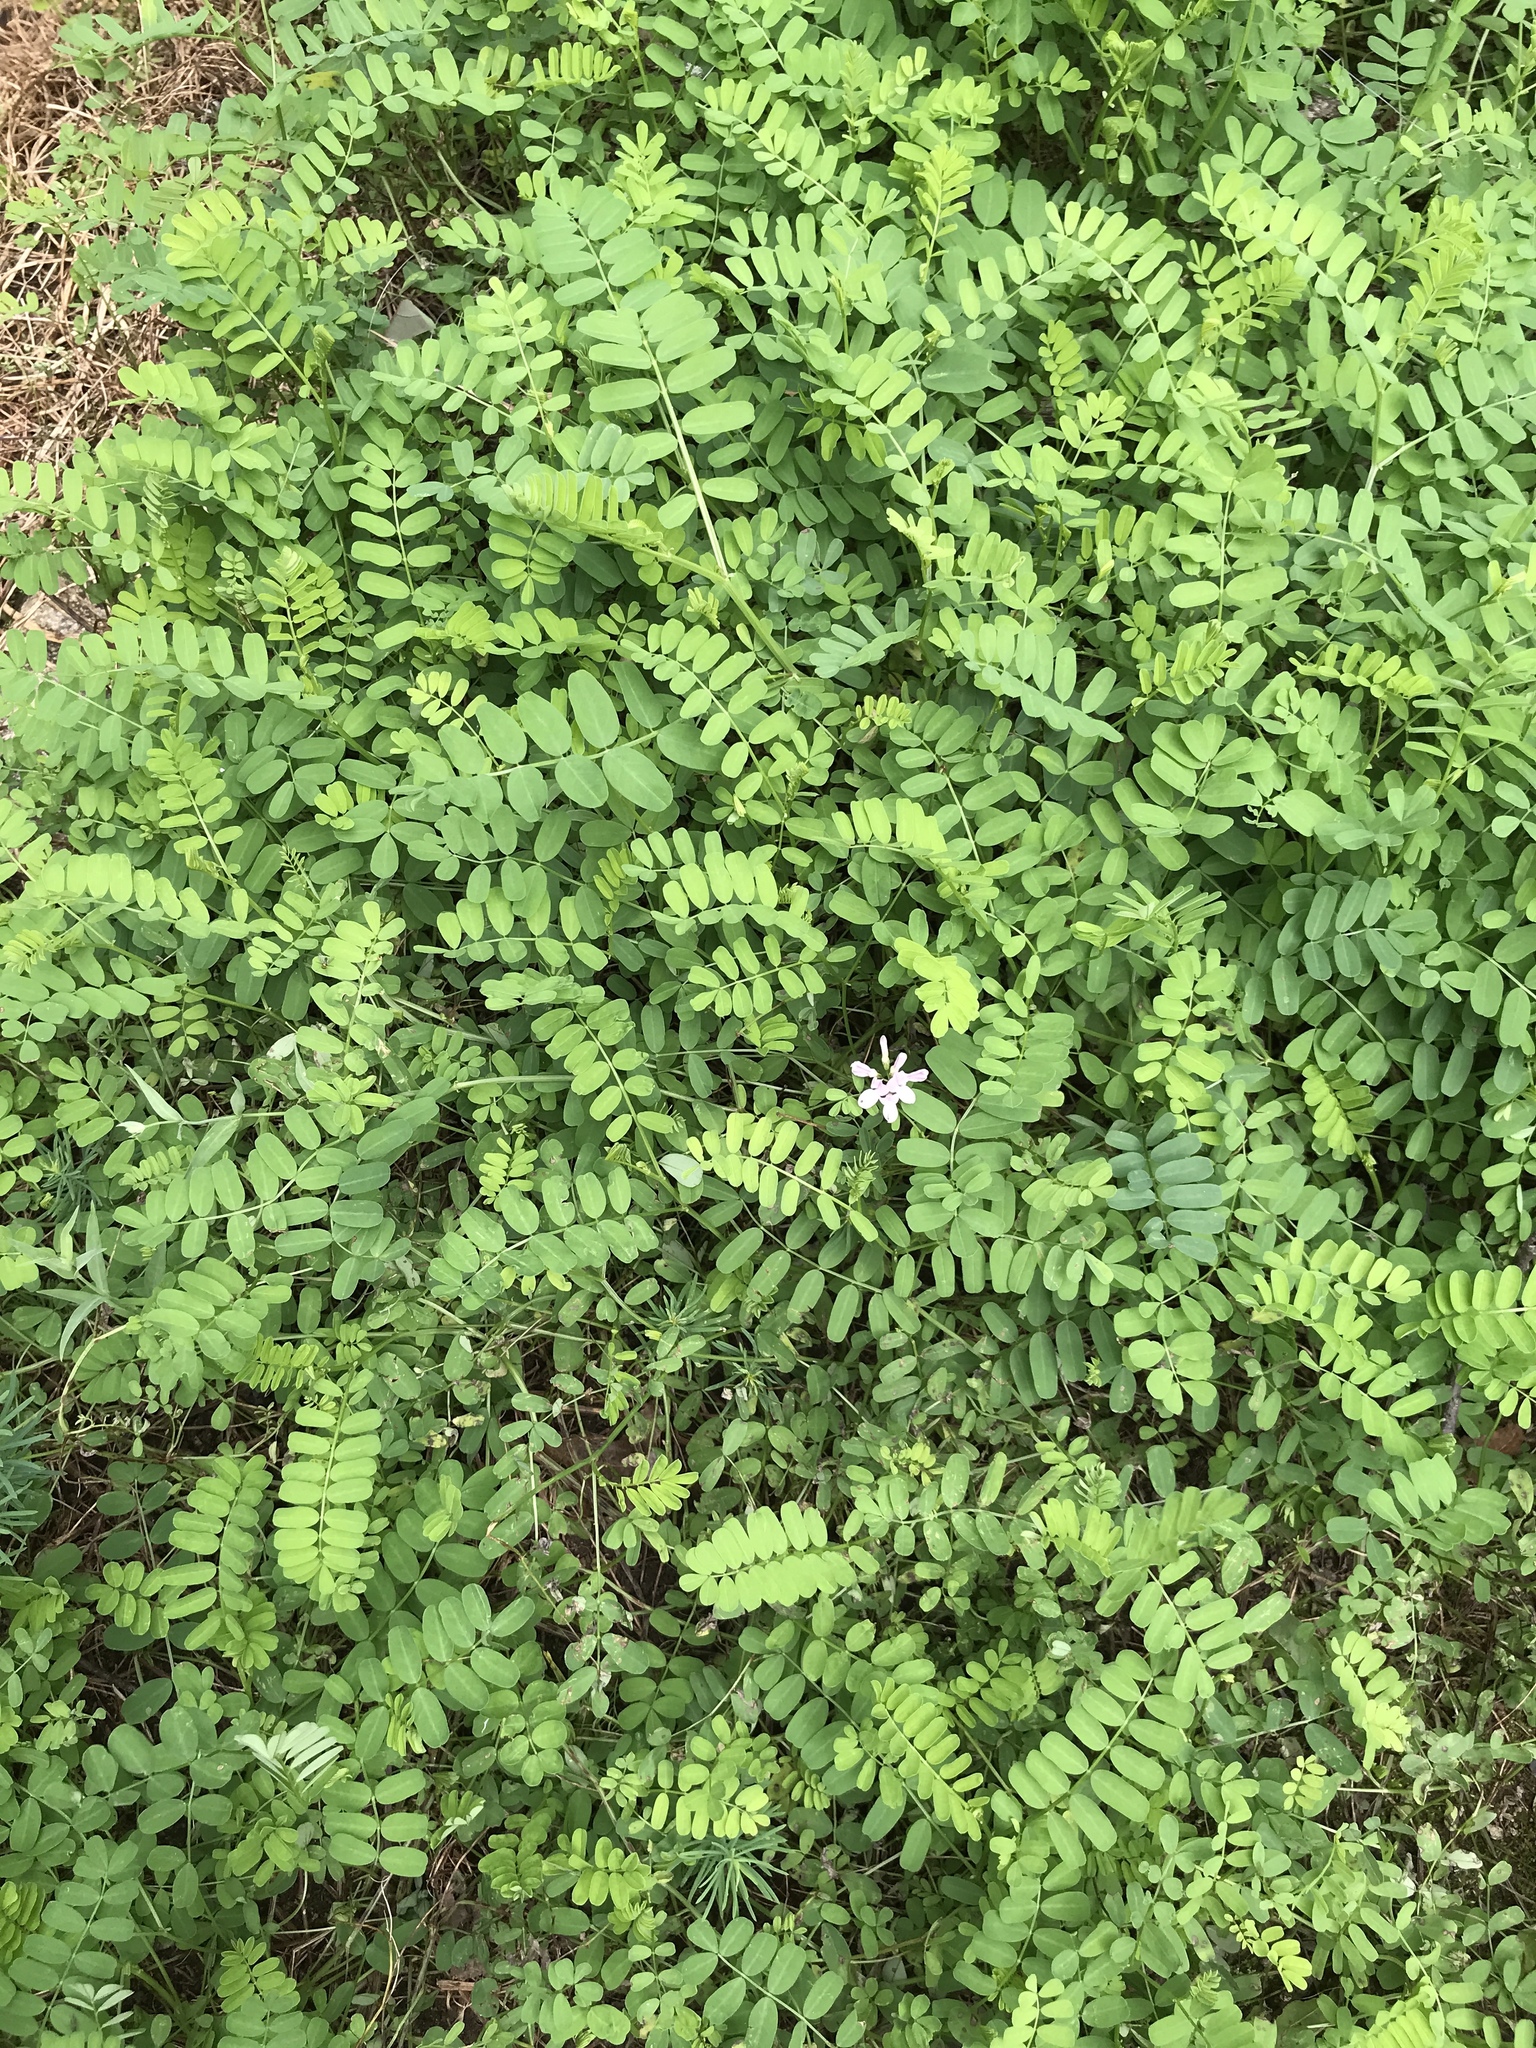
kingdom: Plantae
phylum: Tracheophyta
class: Magnoliopsida
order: Fabales
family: Fabaceae
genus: Coronilla
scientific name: Coronilla varia
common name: Crownvetch
